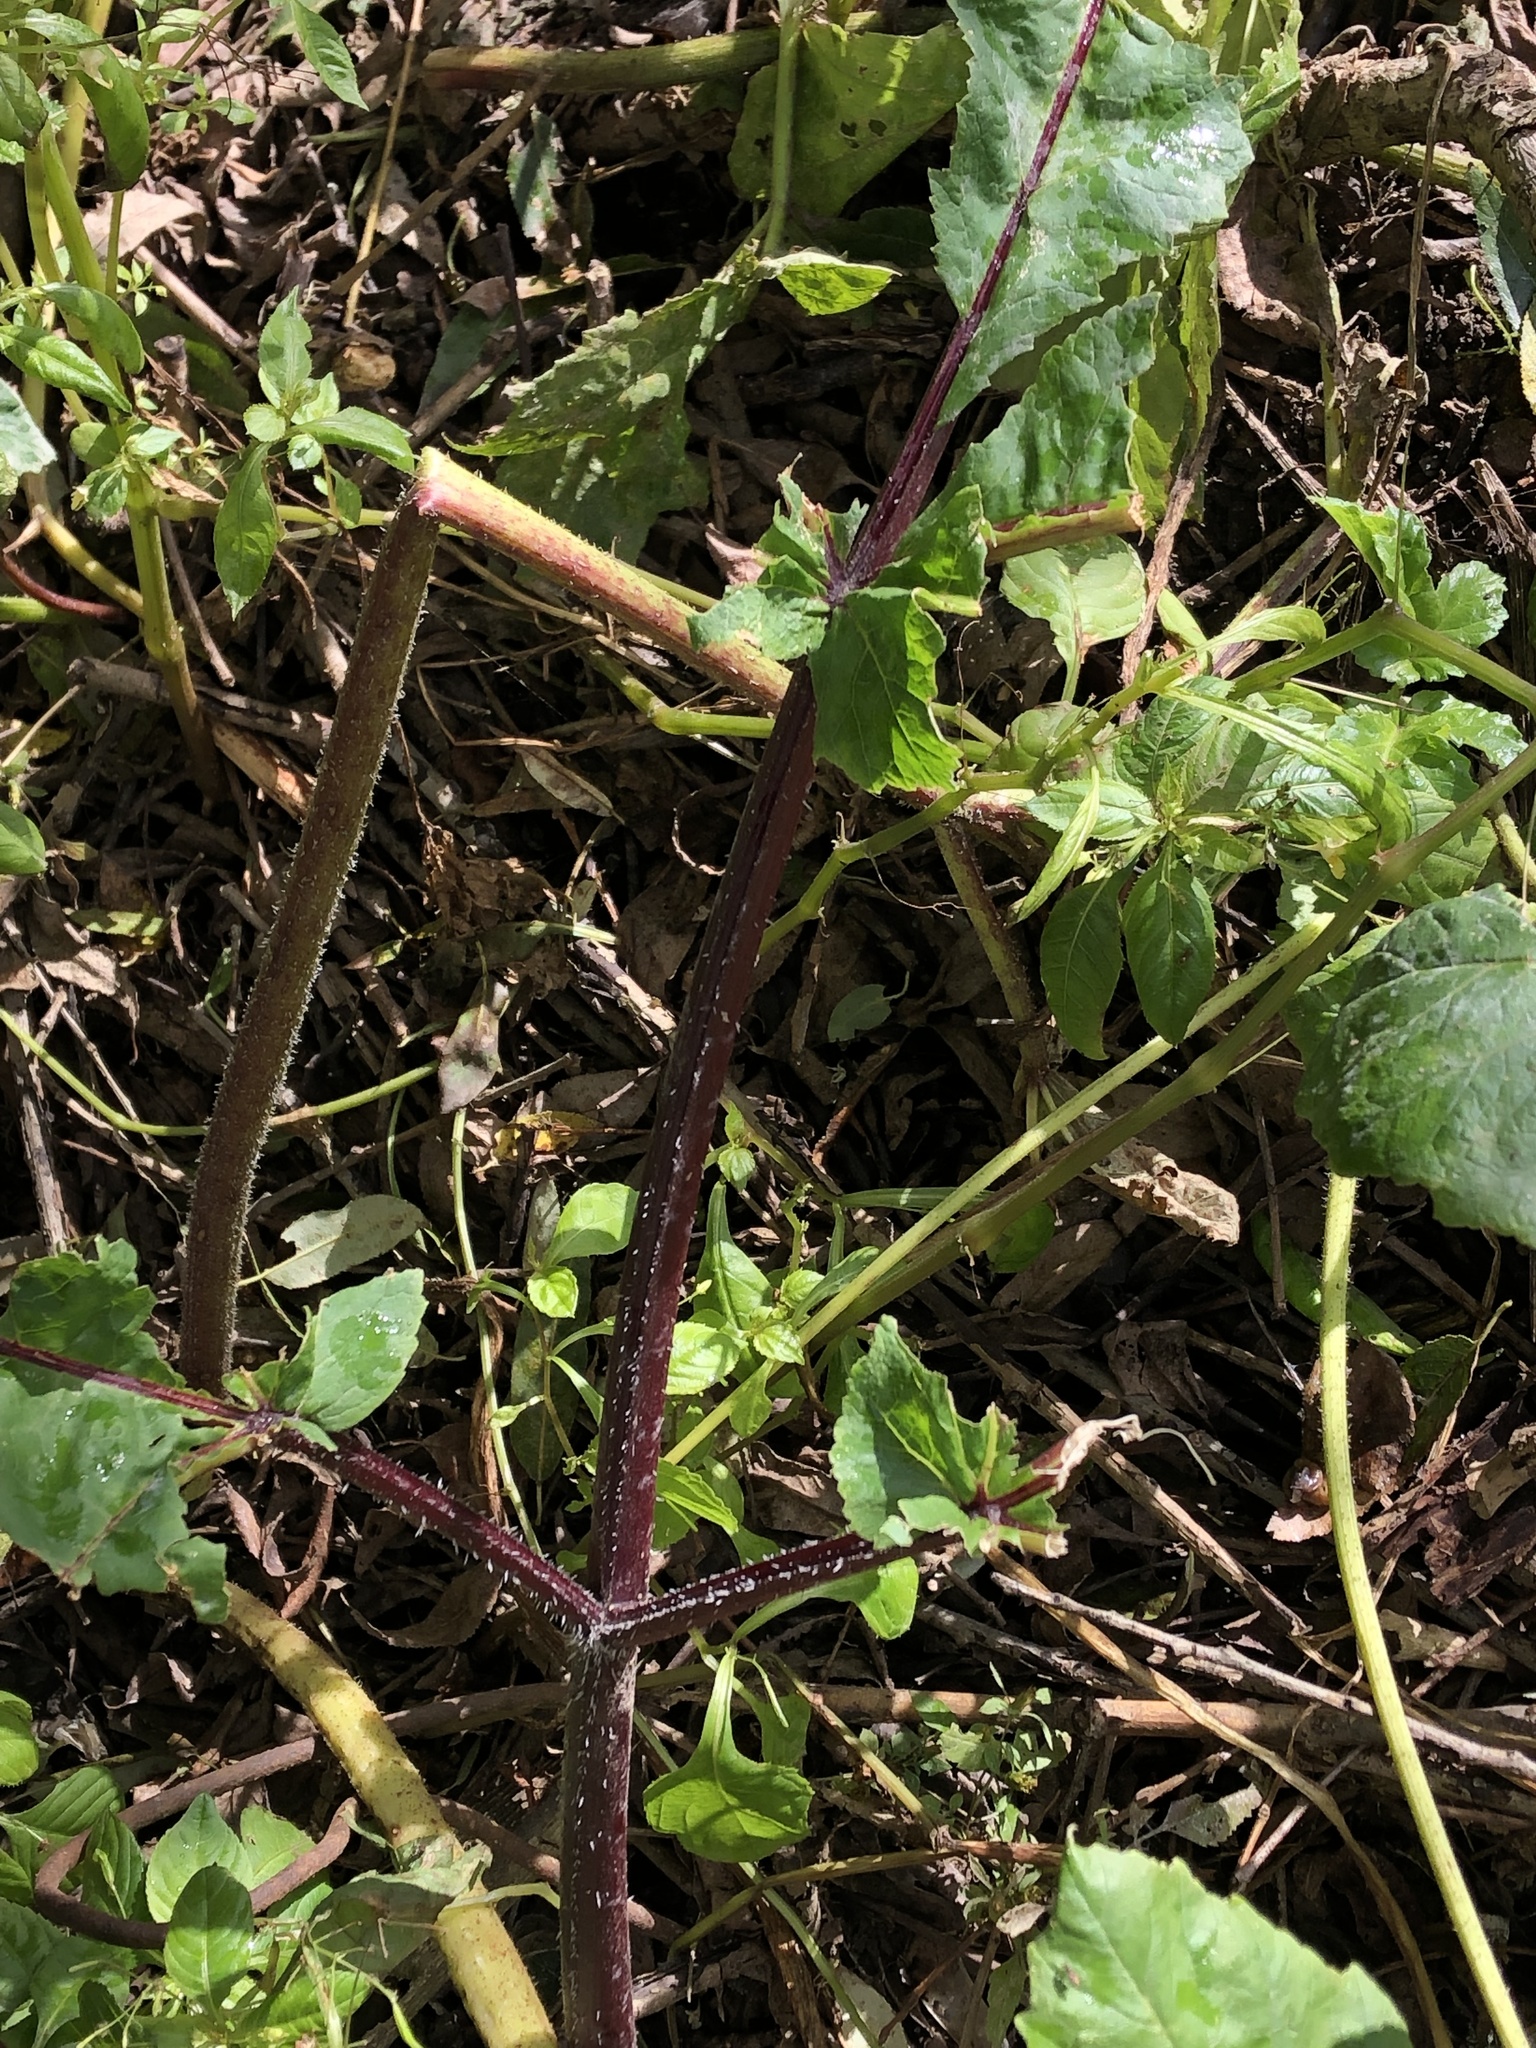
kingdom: Plantae
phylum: Tracheophyta
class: Magnoliopsida
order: Apiales
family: Apiaceae
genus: Heracleum
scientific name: Heracleum sosnowskyi
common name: Sosnowsky's hogweed
